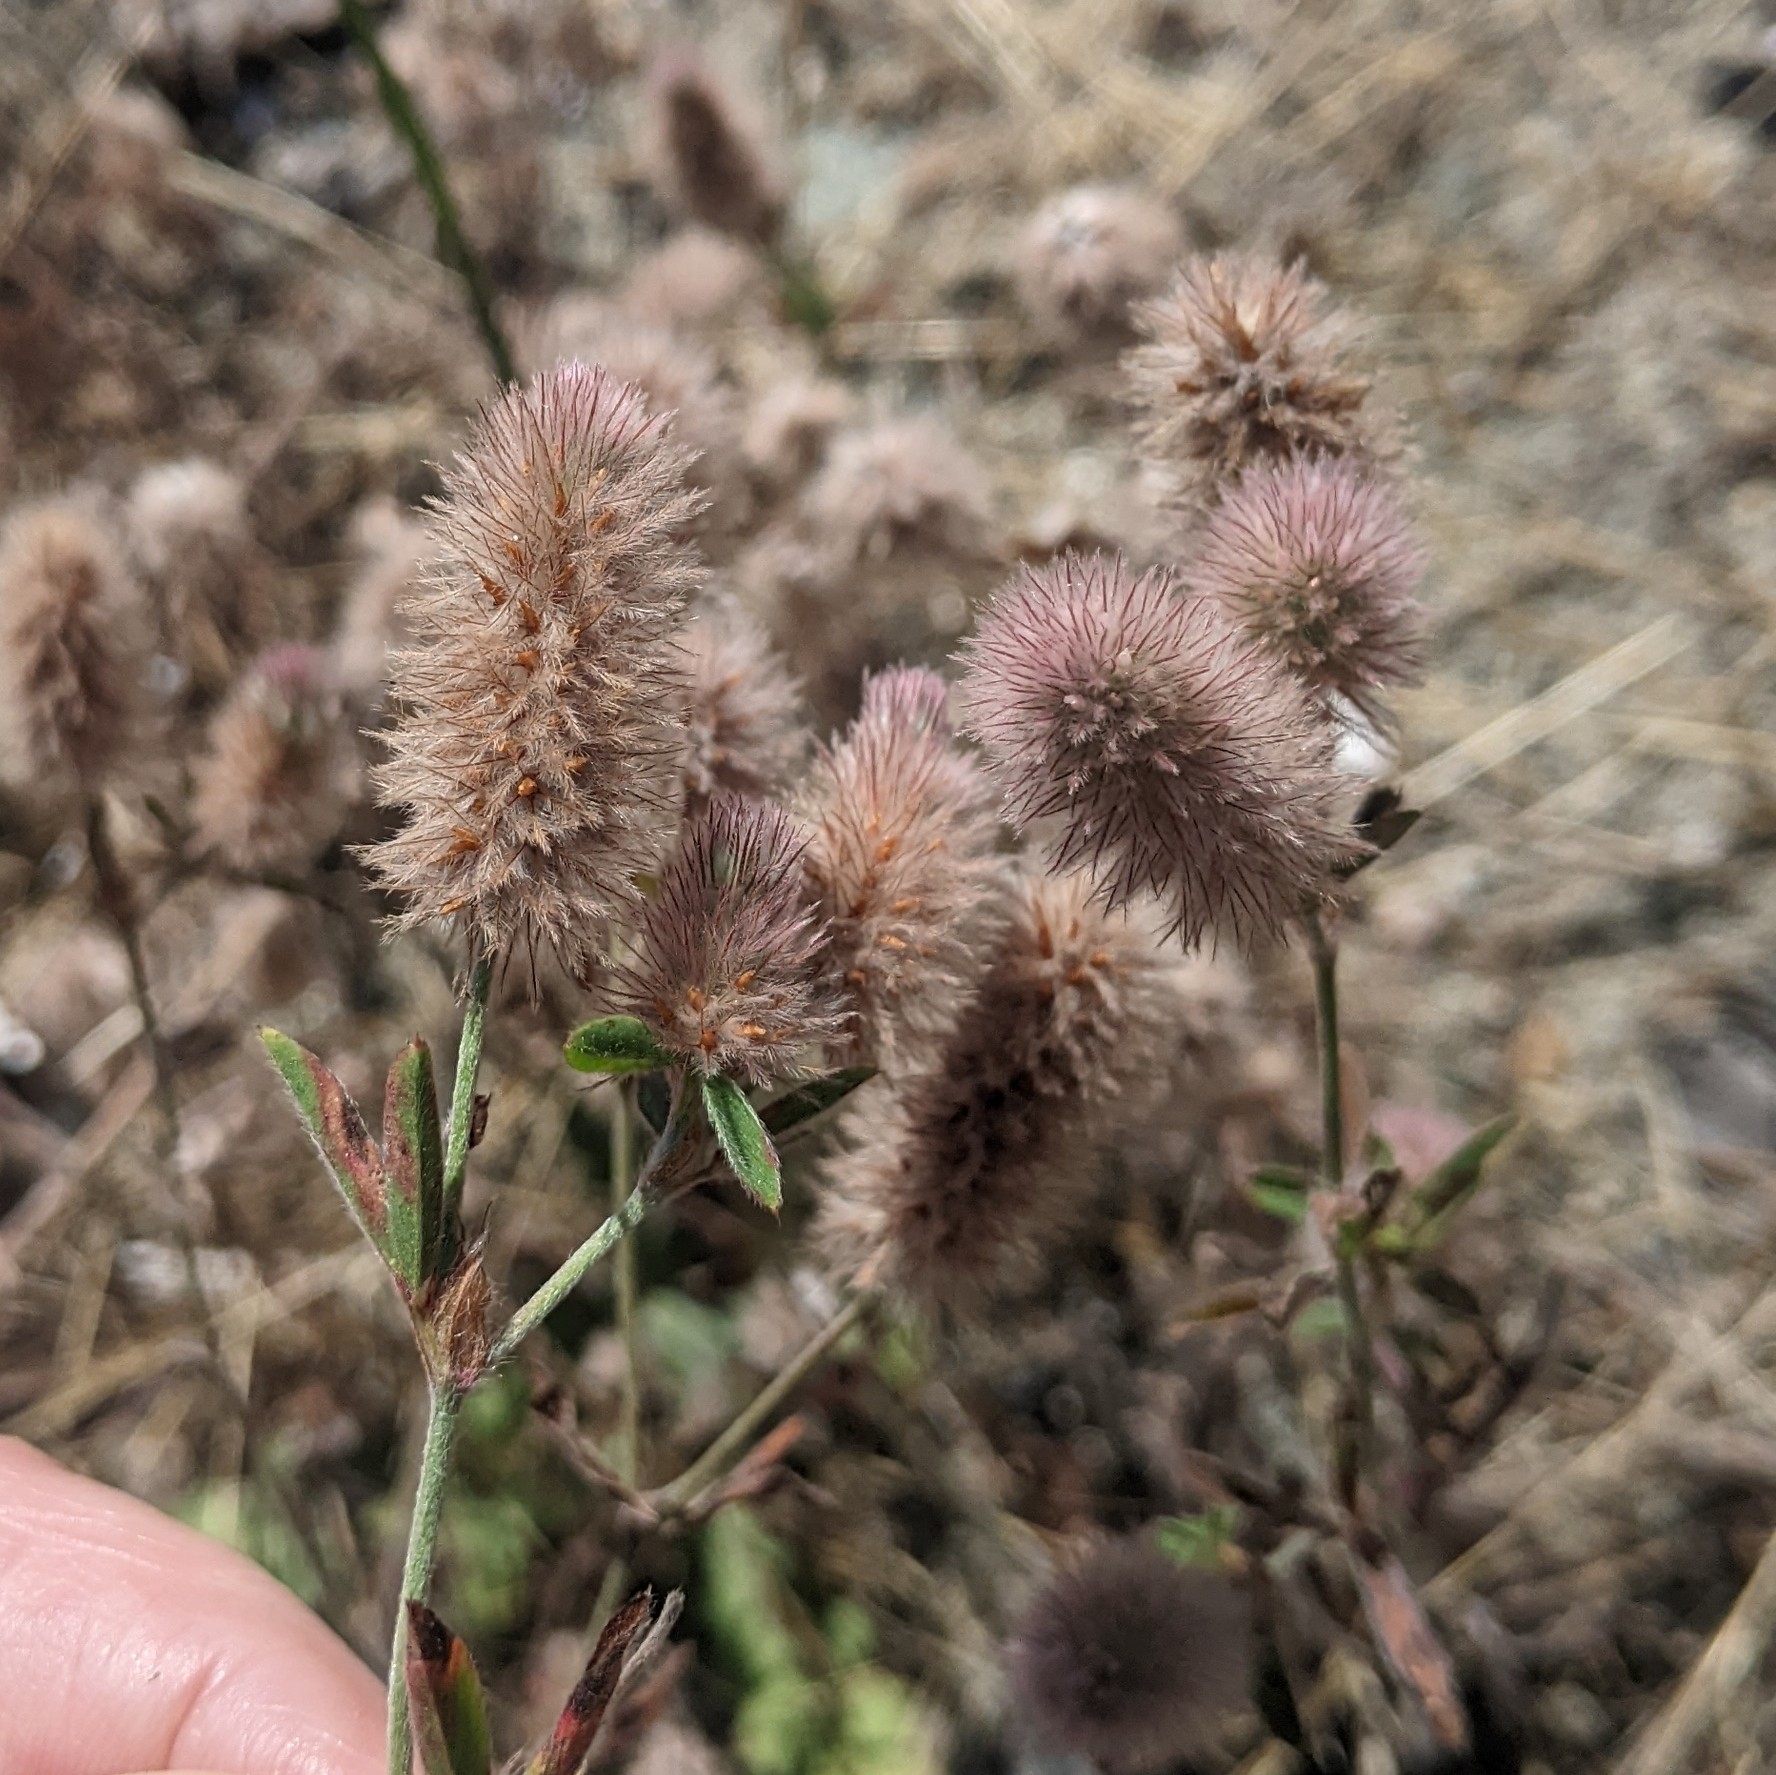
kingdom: Plantae
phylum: Tracheophyta
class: Magnoliopsida
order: Fabales
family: Fabaceae
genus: Trifolium
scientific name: Trifolium arvense
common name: Hare's-foot clover
